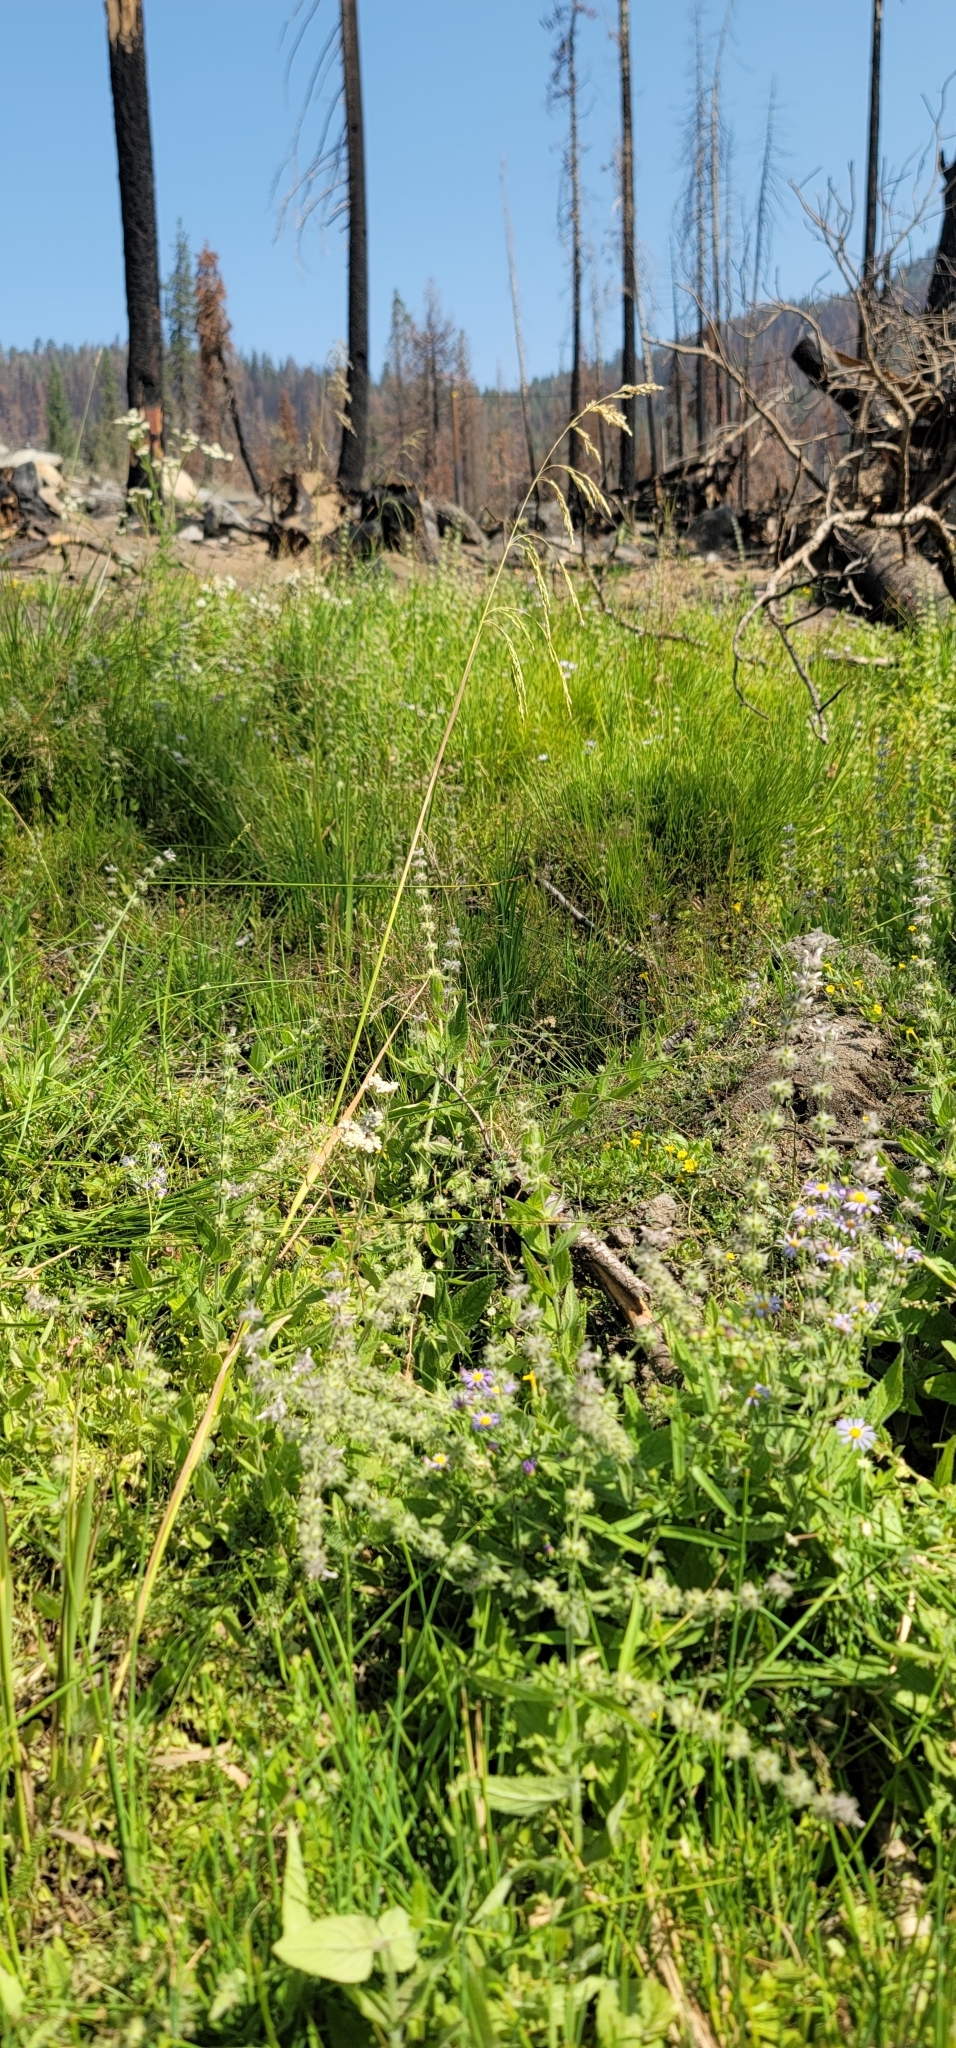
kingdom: Plantae
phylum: Tracheophyta
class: Liliopsida
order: Poales
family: Poaceae
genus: Cinna
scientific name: Cinna bolanderi
